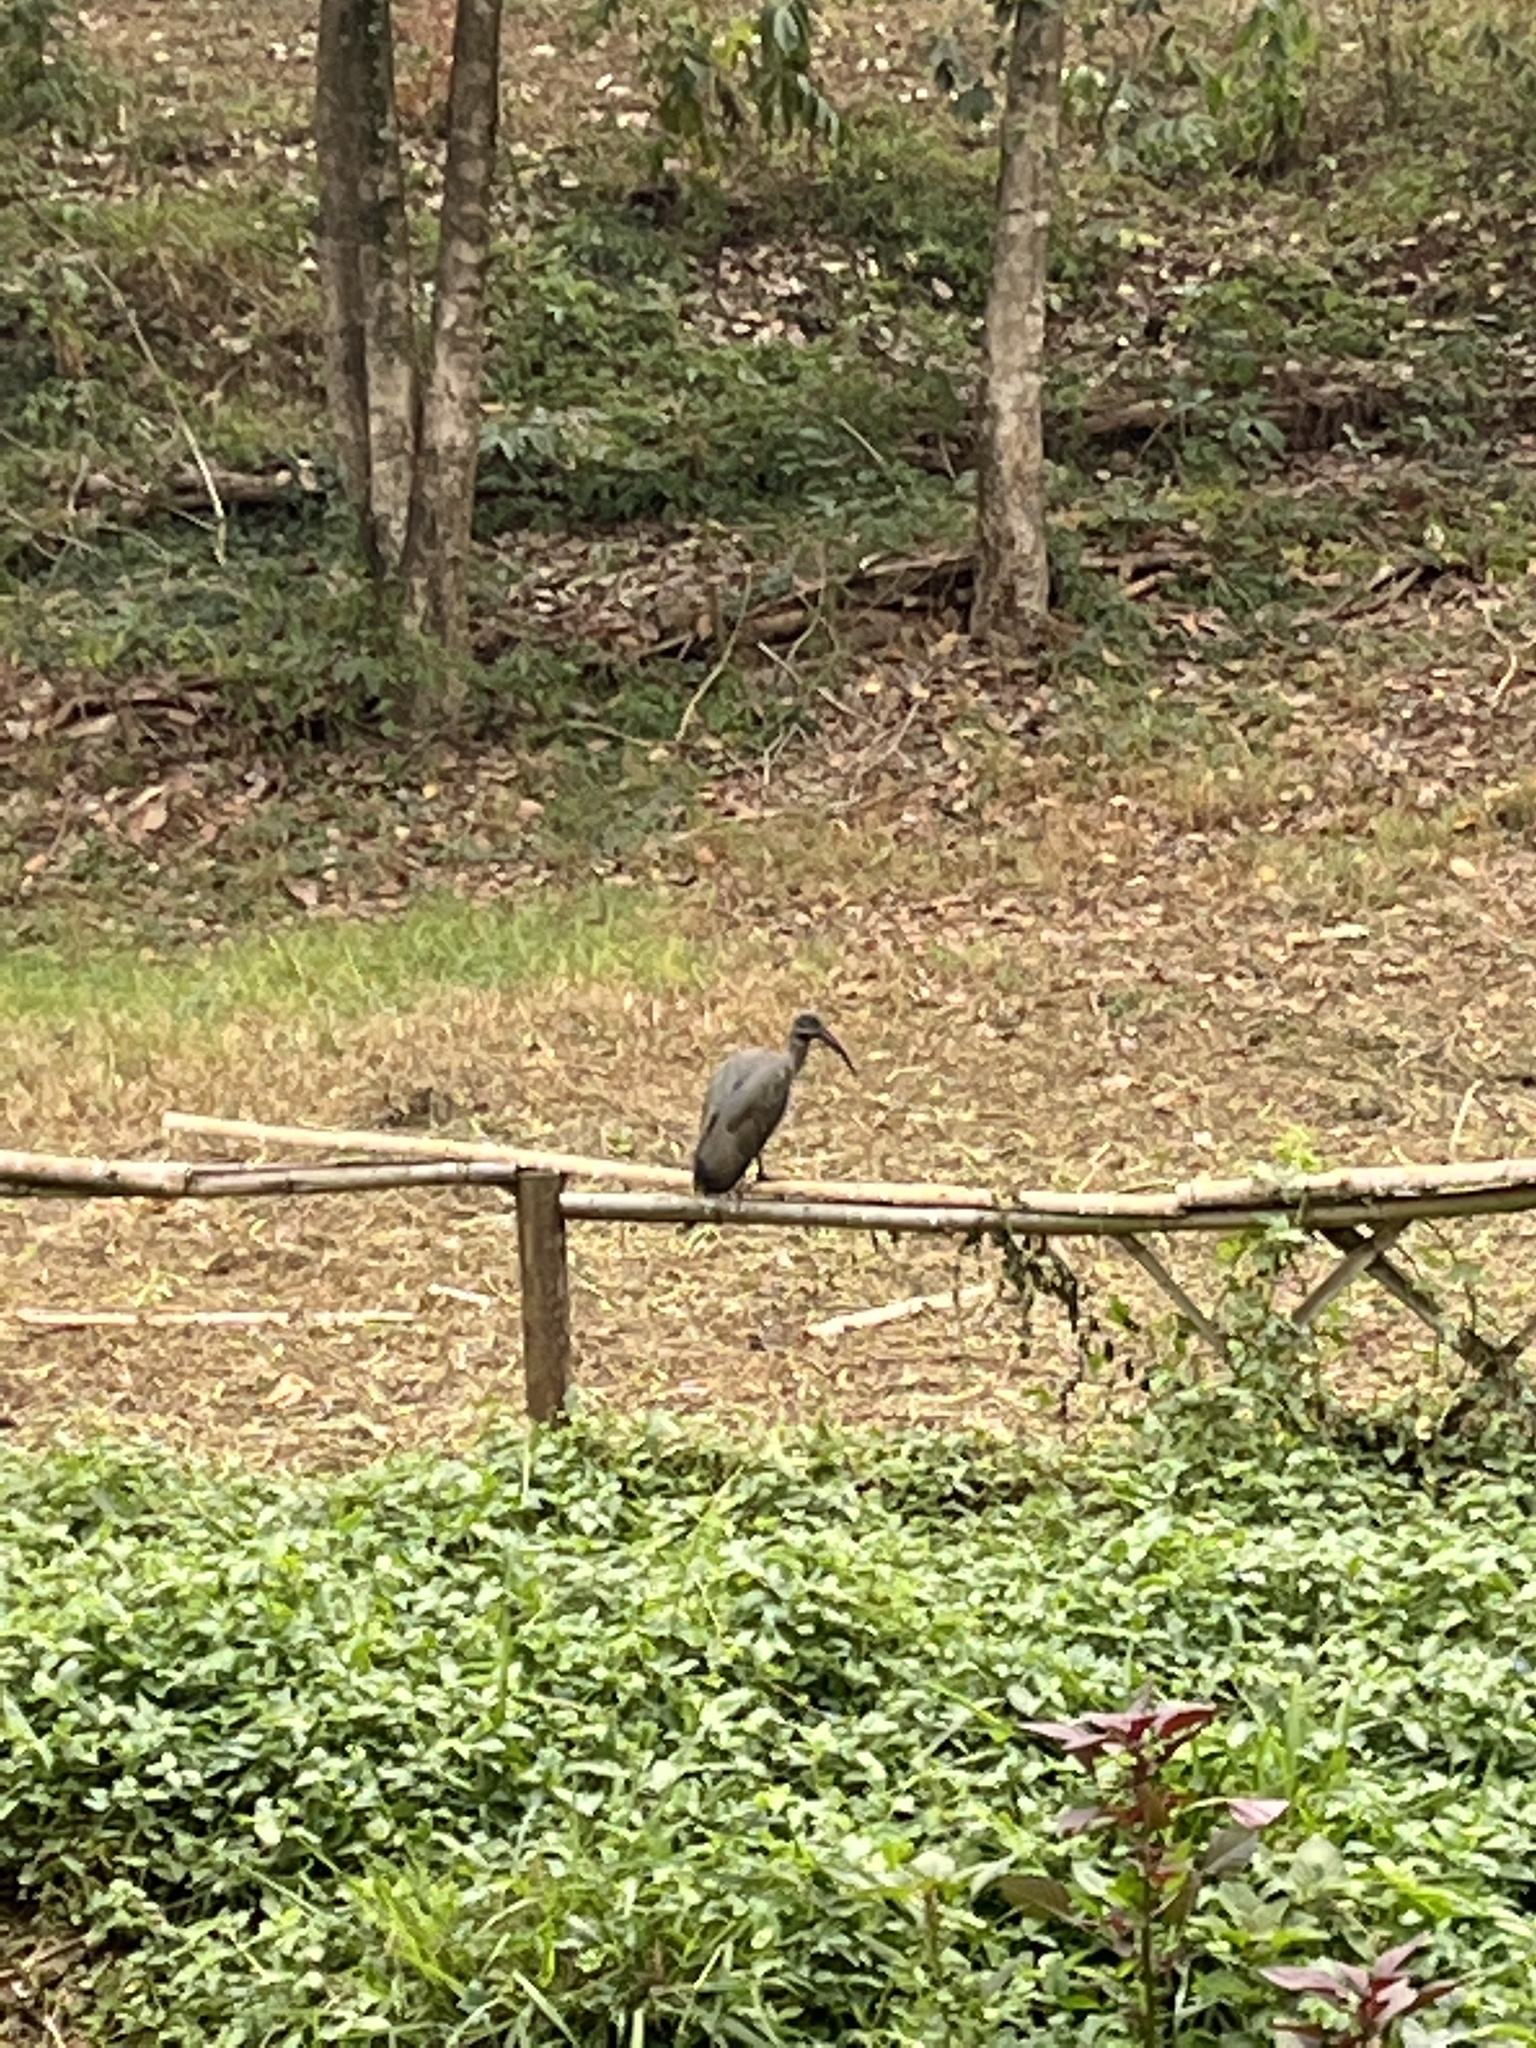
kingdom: Animalia
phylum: Chordata
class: Aves
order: Pelecaniformes
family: Threskiornithidae
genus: Bostrychia
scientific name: Bostrychia hagedash
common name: Hadada ibis
